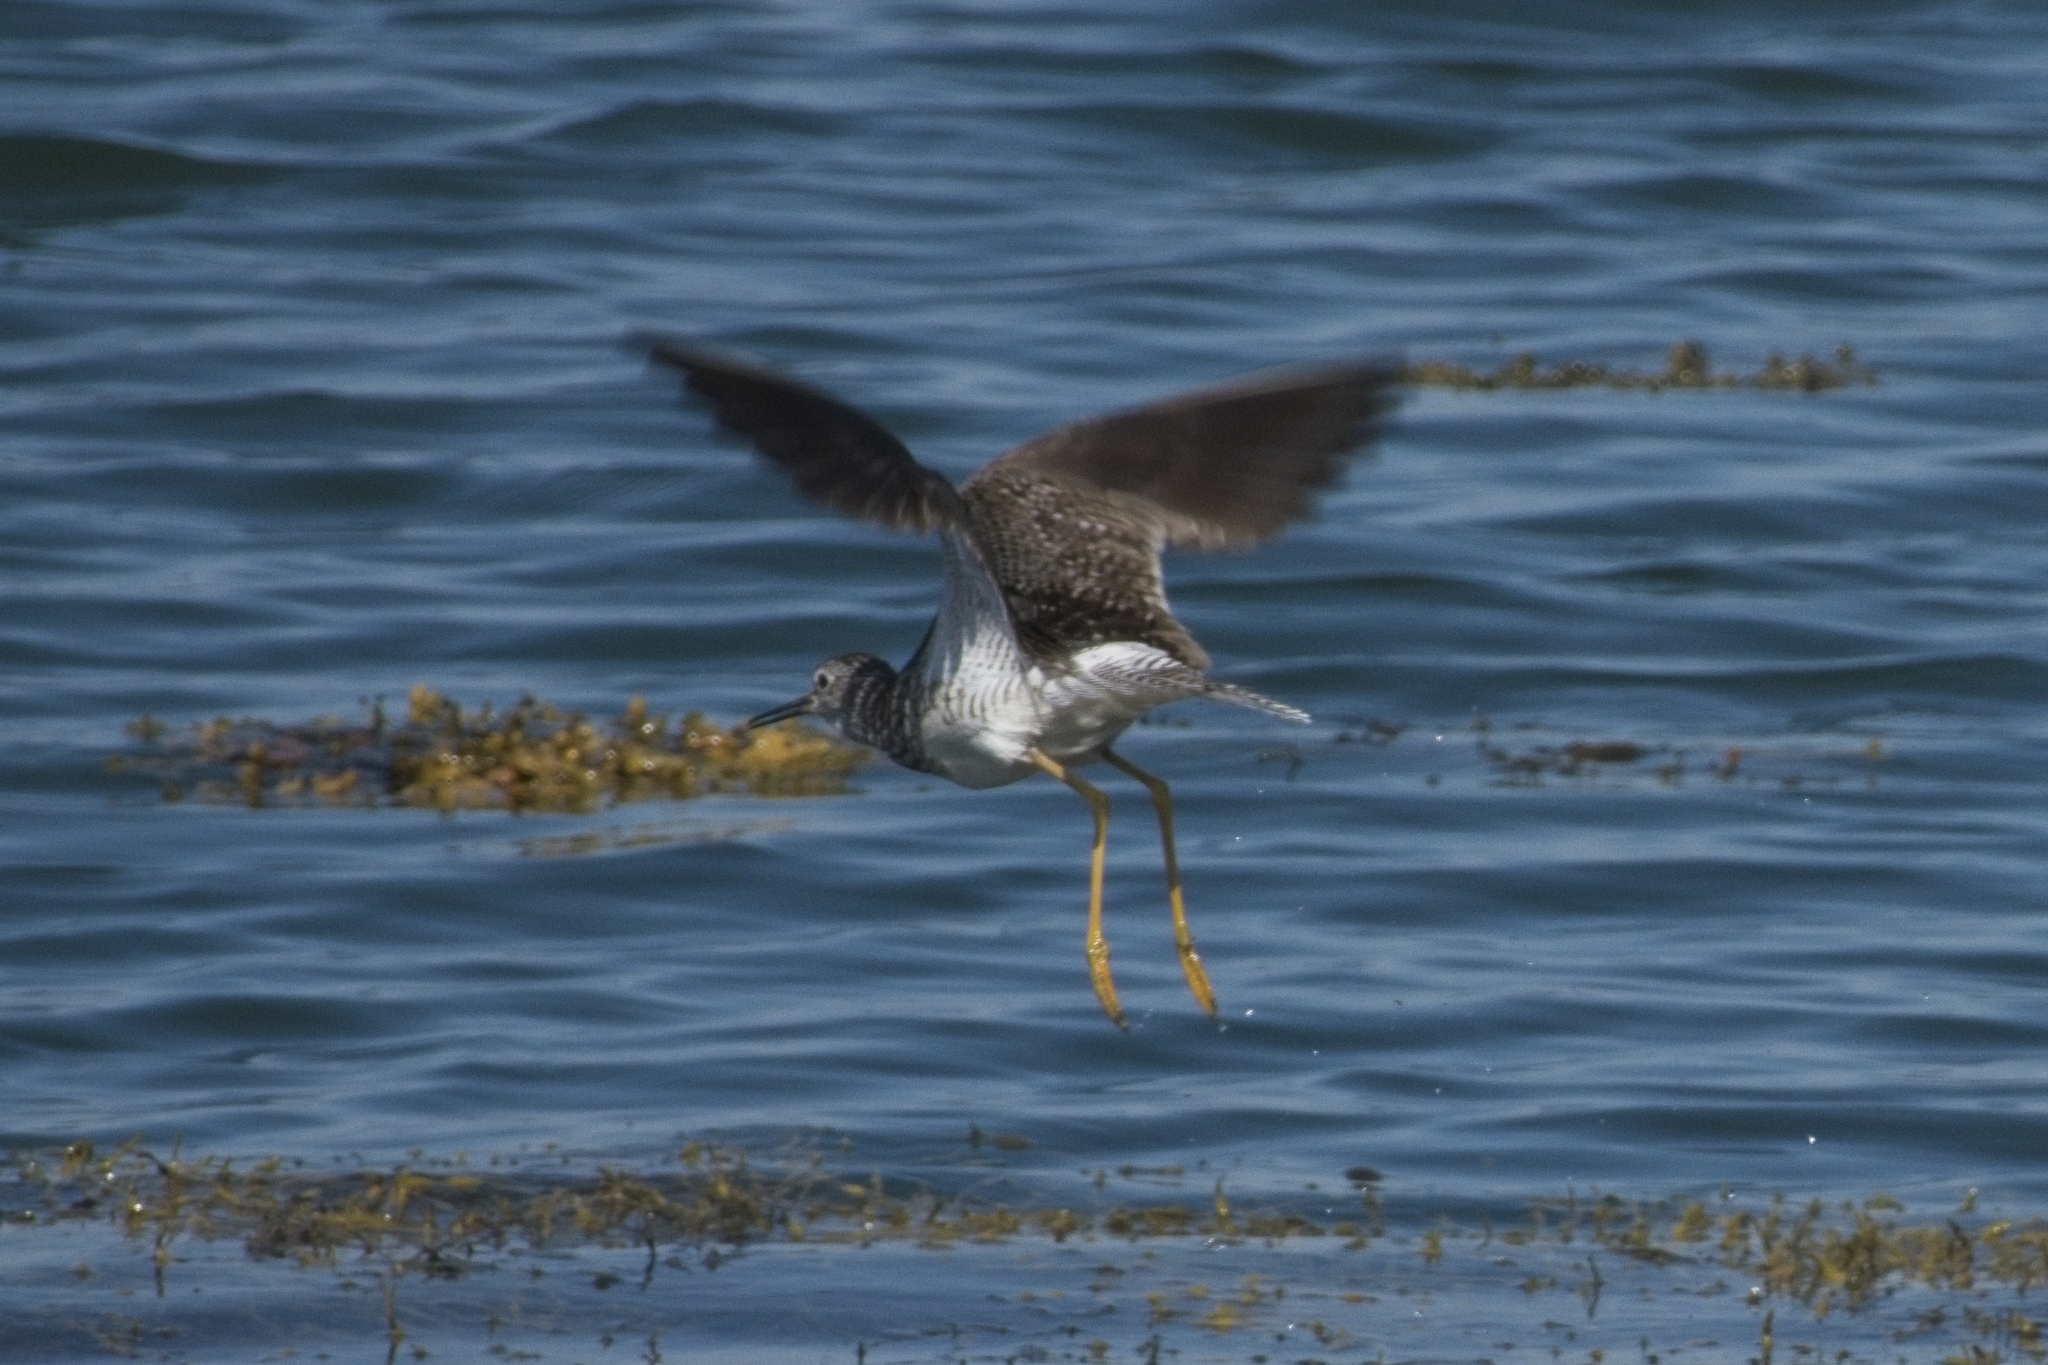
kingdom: Animalia
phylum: Chordata
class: Aves
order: Charadriiformes
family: Scolopacidae
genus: Tringa
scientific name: Tringa melanoleuca
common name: Greater yellowlegs
